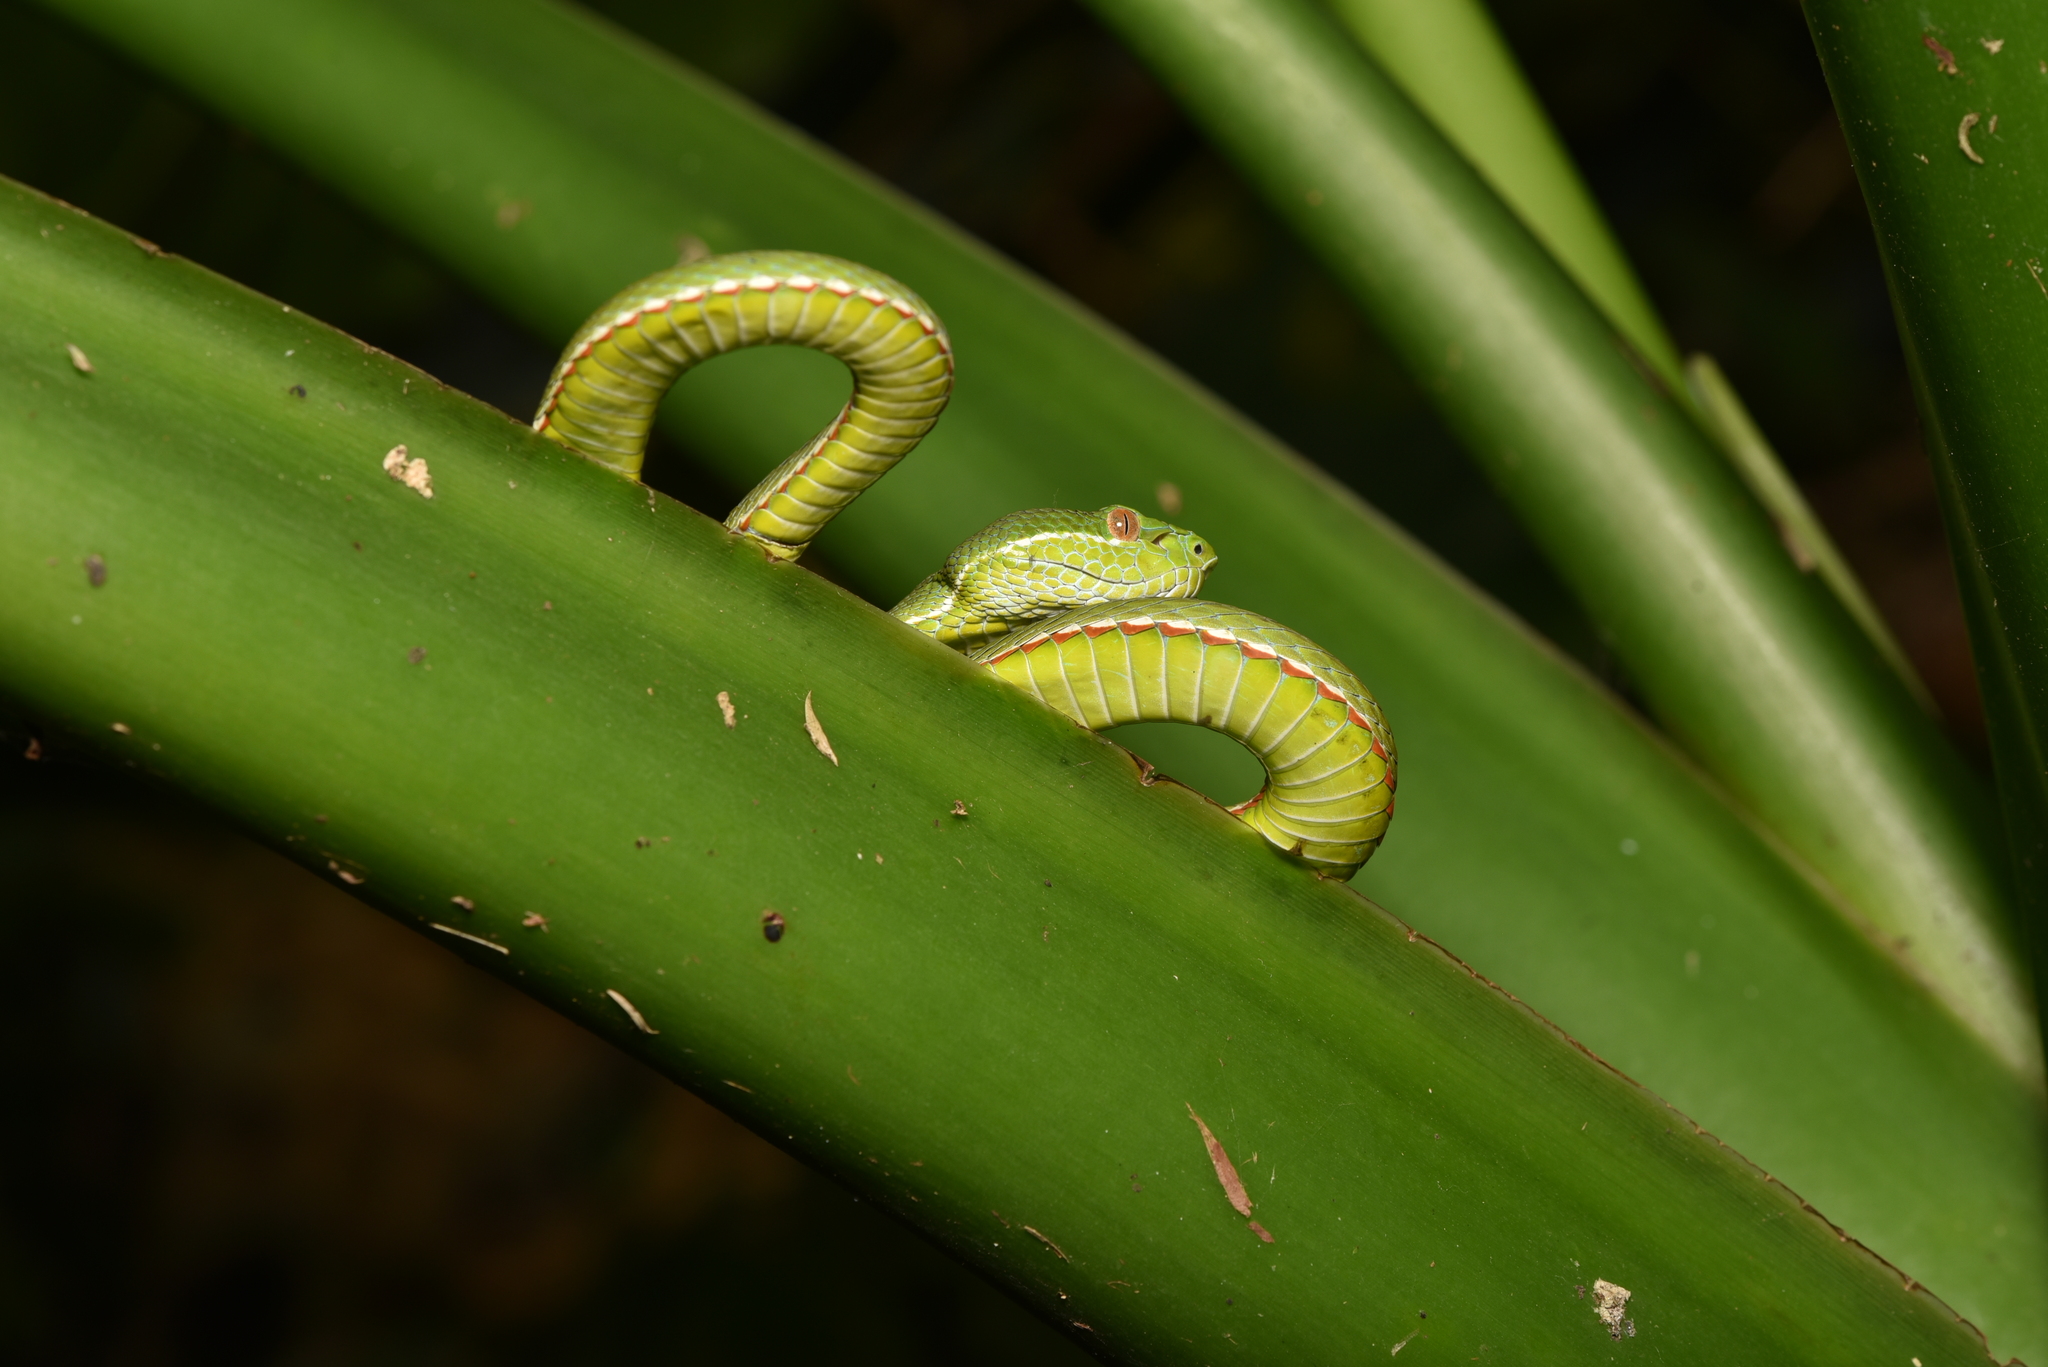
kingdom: Animalia
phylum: Chordata
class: Squamata
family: Viperidae
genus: Trimeresurus
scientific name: Trimeresurus stejnegeri
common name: Chen’s bamboo pit viper
